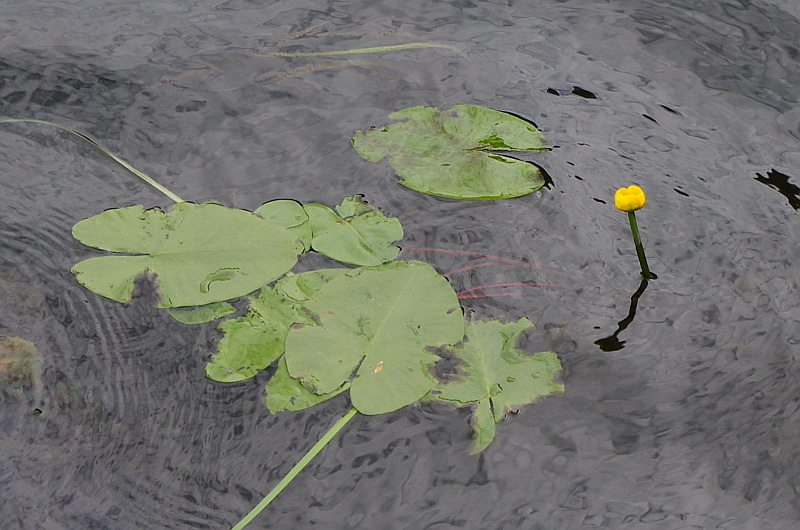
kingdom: Plantae
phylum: Tracheophyta
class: Magnoliopsida
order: Nymphaeales
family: Nymphaeaceae
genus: Nuphar
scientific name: Nuphar lutea
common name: Yellow water-lily
